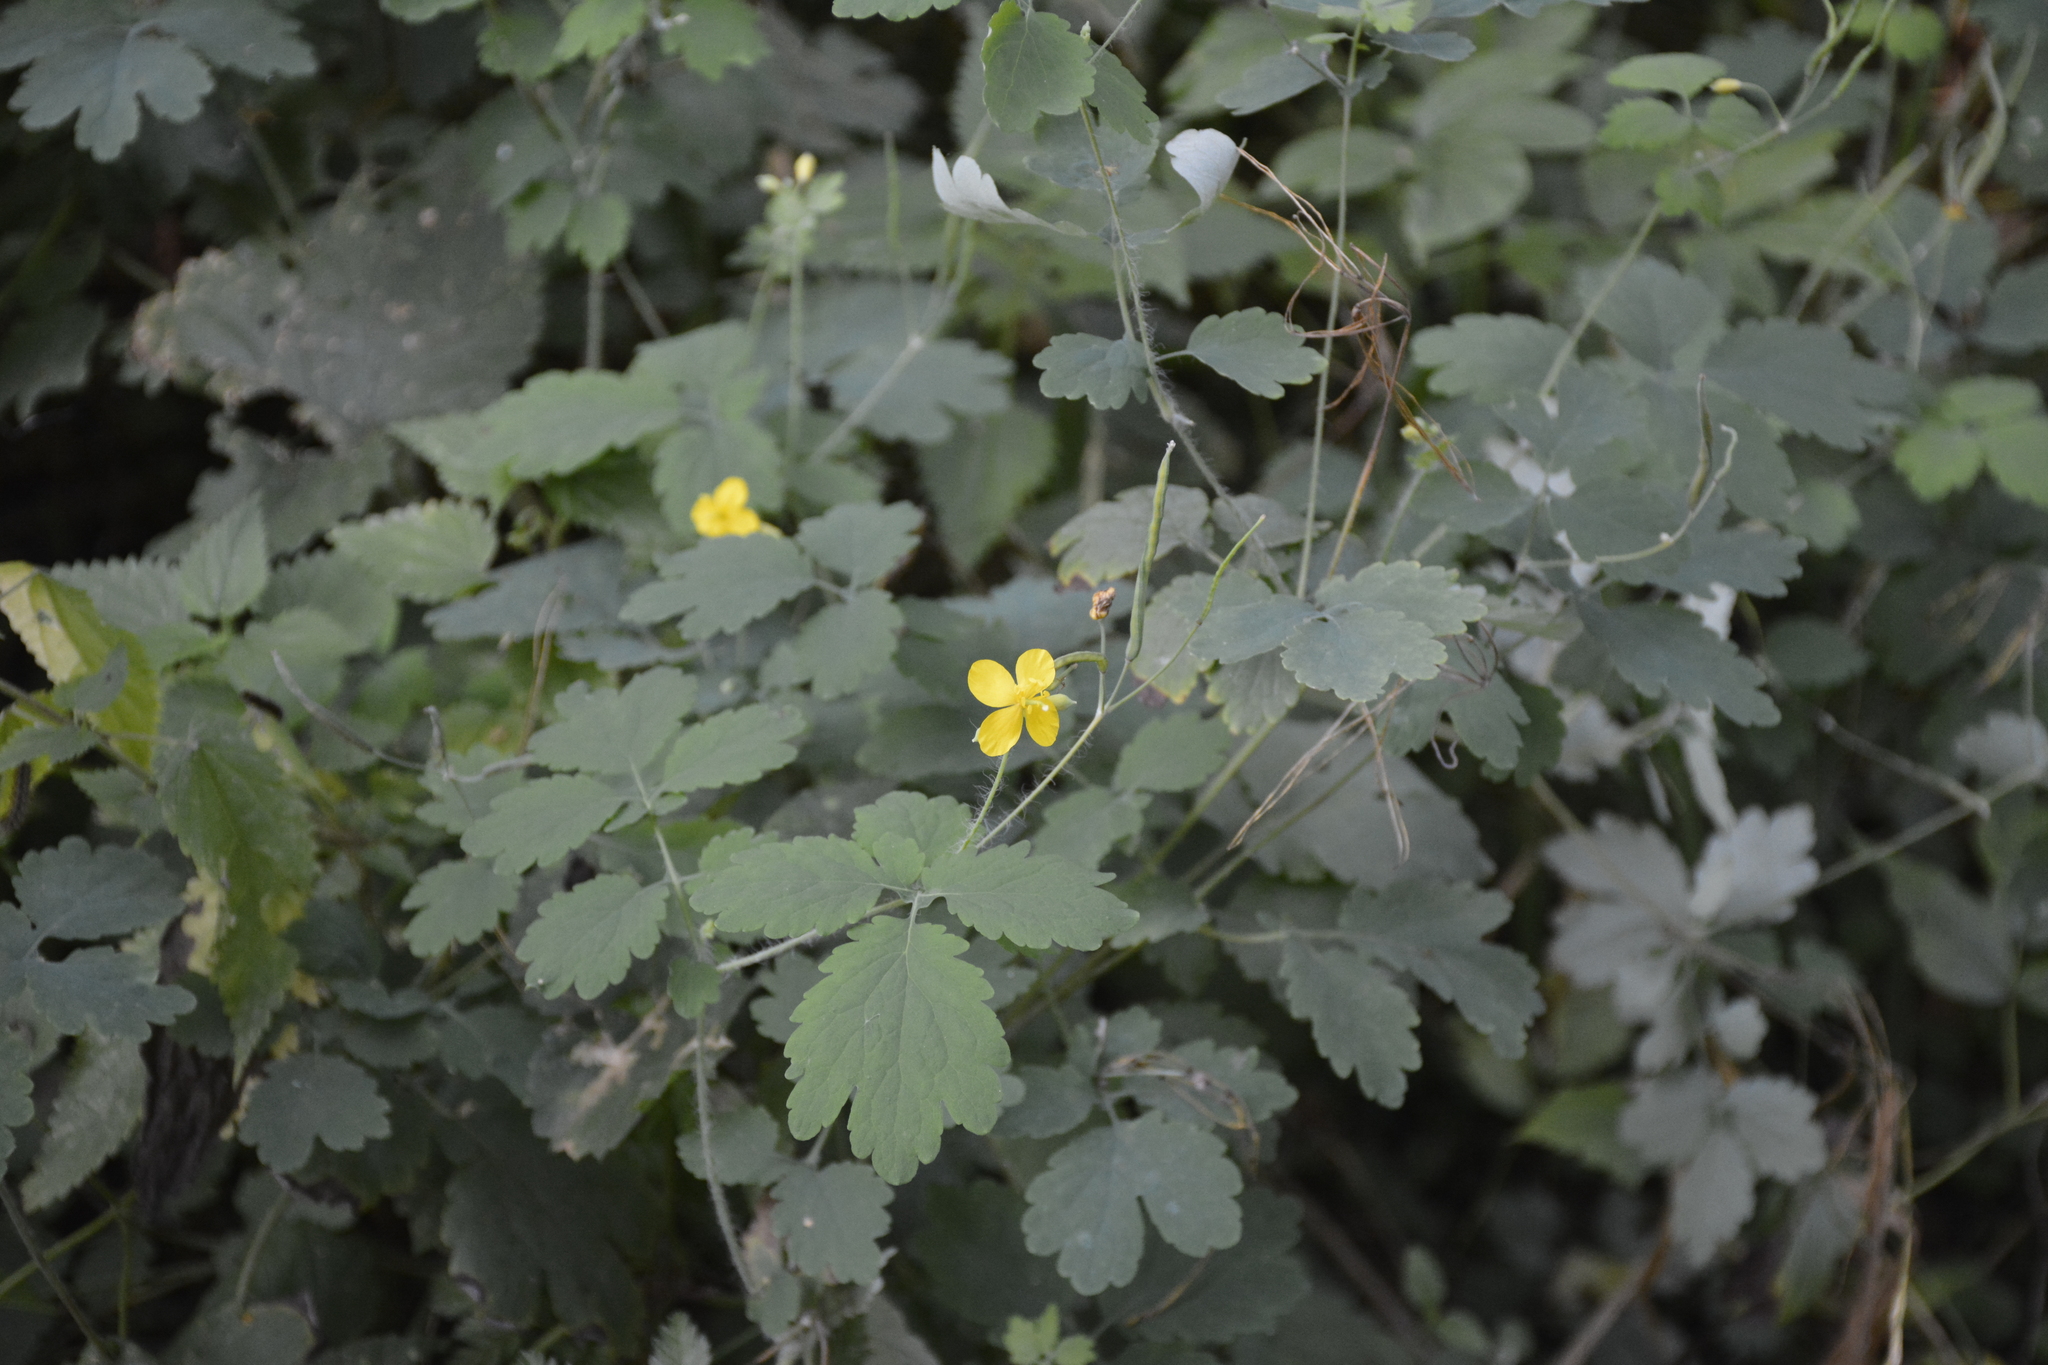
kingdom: Plantae
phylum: Tracheophyta
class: Magnoliopsida
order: Ranunculales
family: Papaveraceae
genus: Chelidonium
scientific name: Chelidonium majus
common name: Greater celandine
